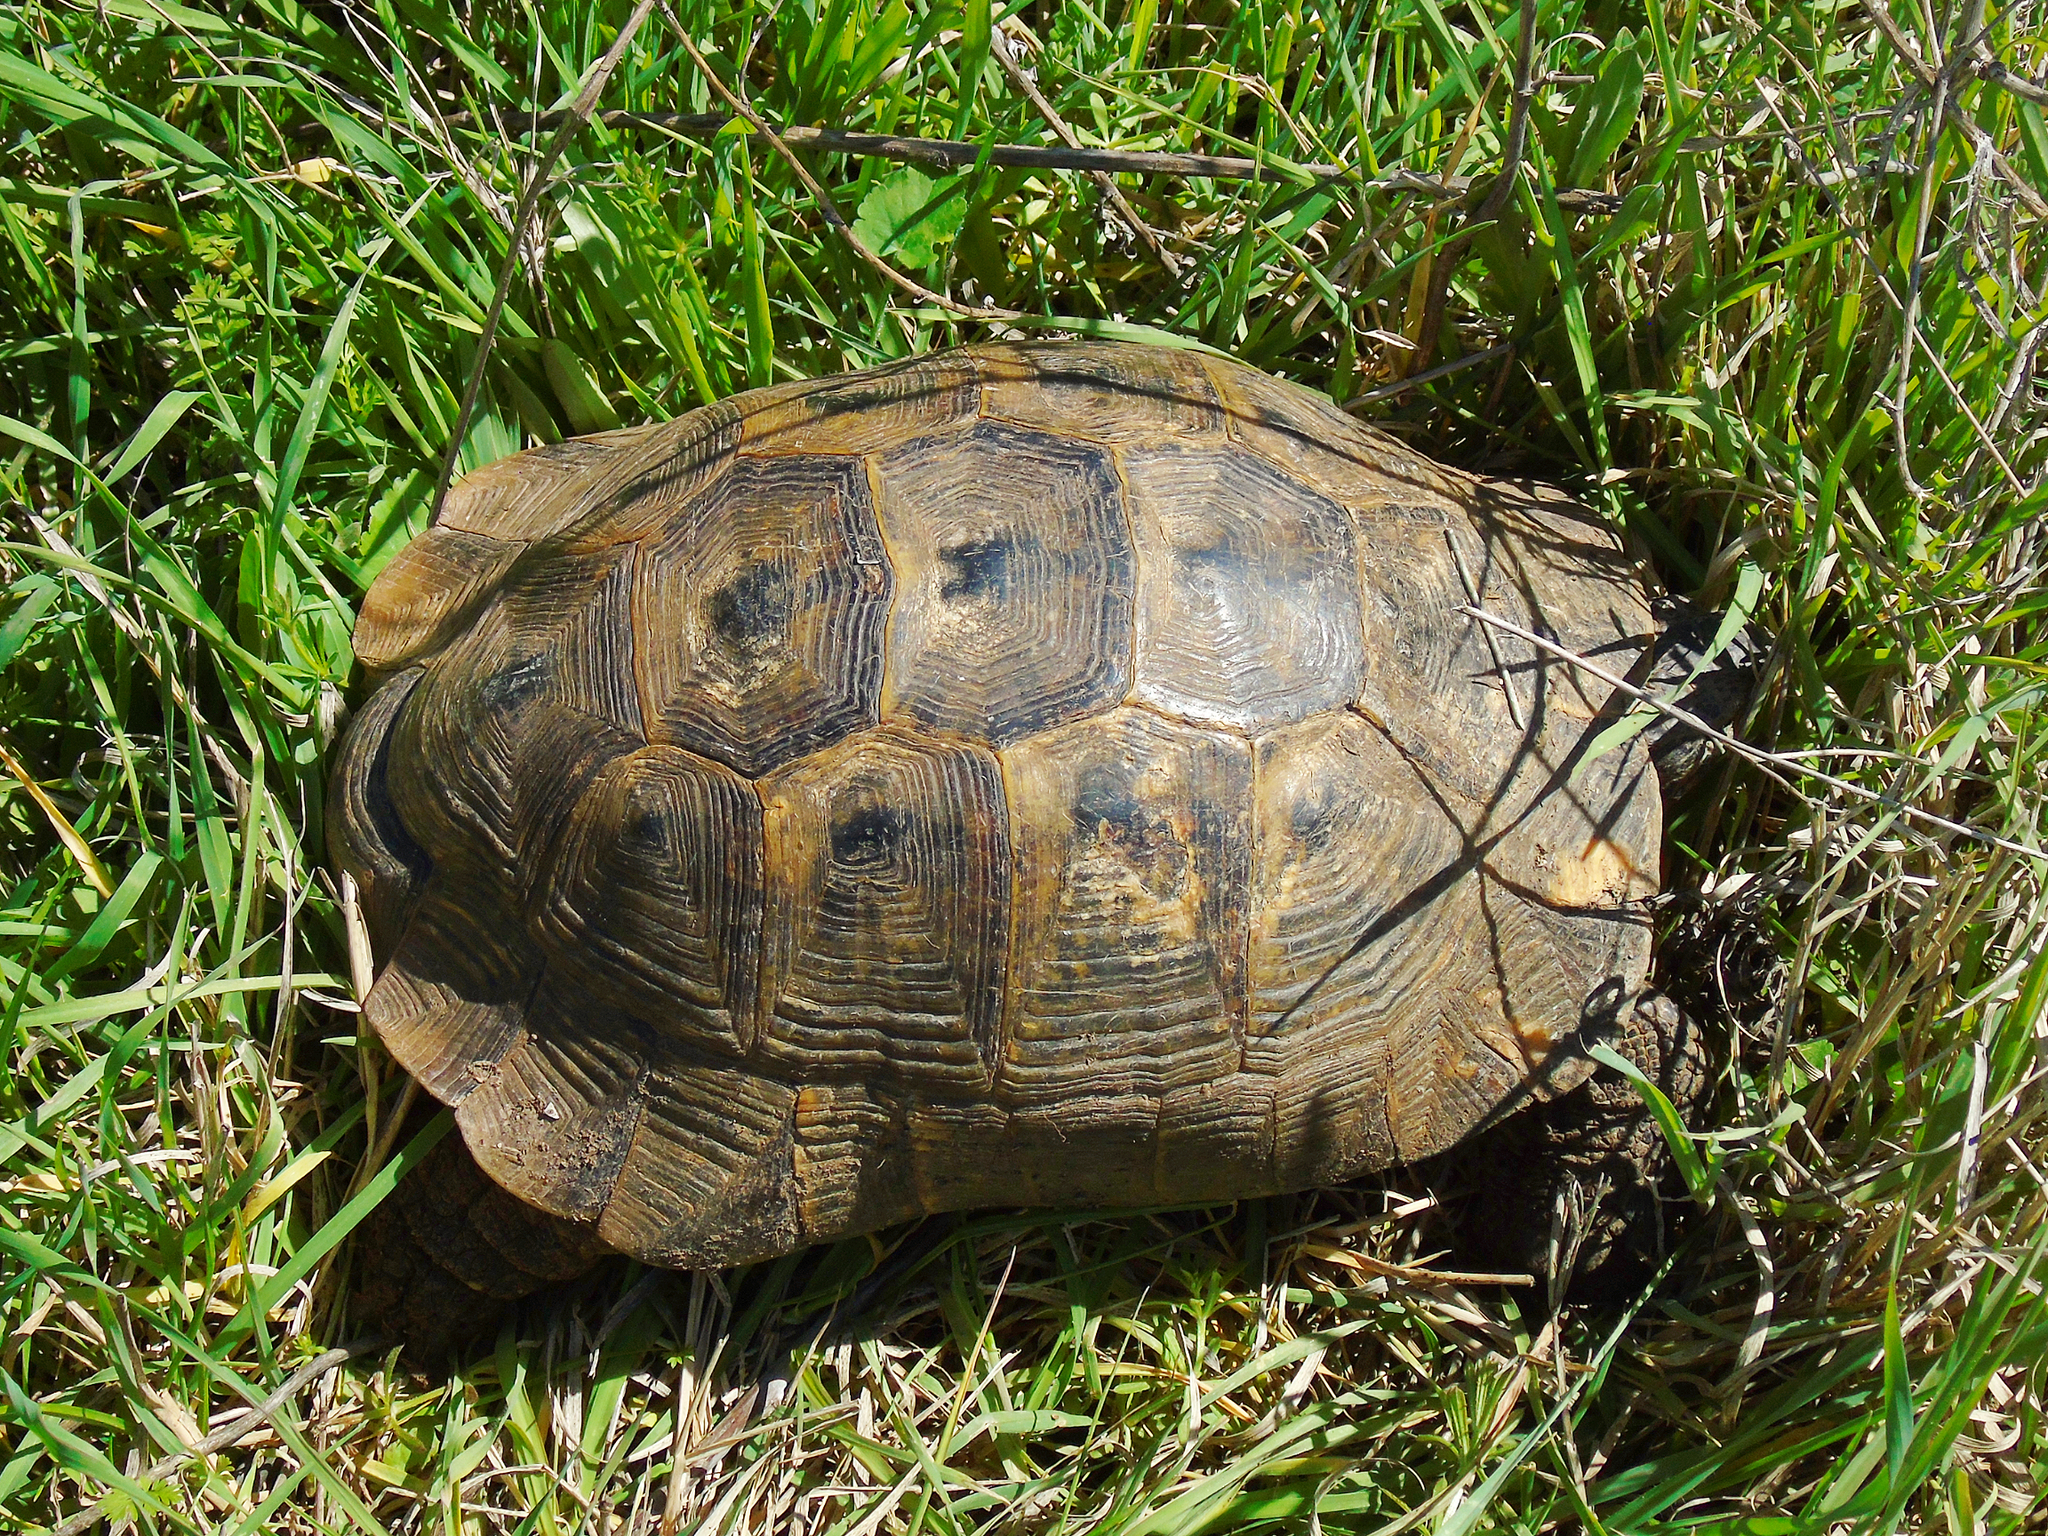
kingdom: Animalia
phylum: Chordata
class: Testudines
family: Testudinidae
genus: Testudo
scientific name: Testudo graeca
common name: Common tortoise
